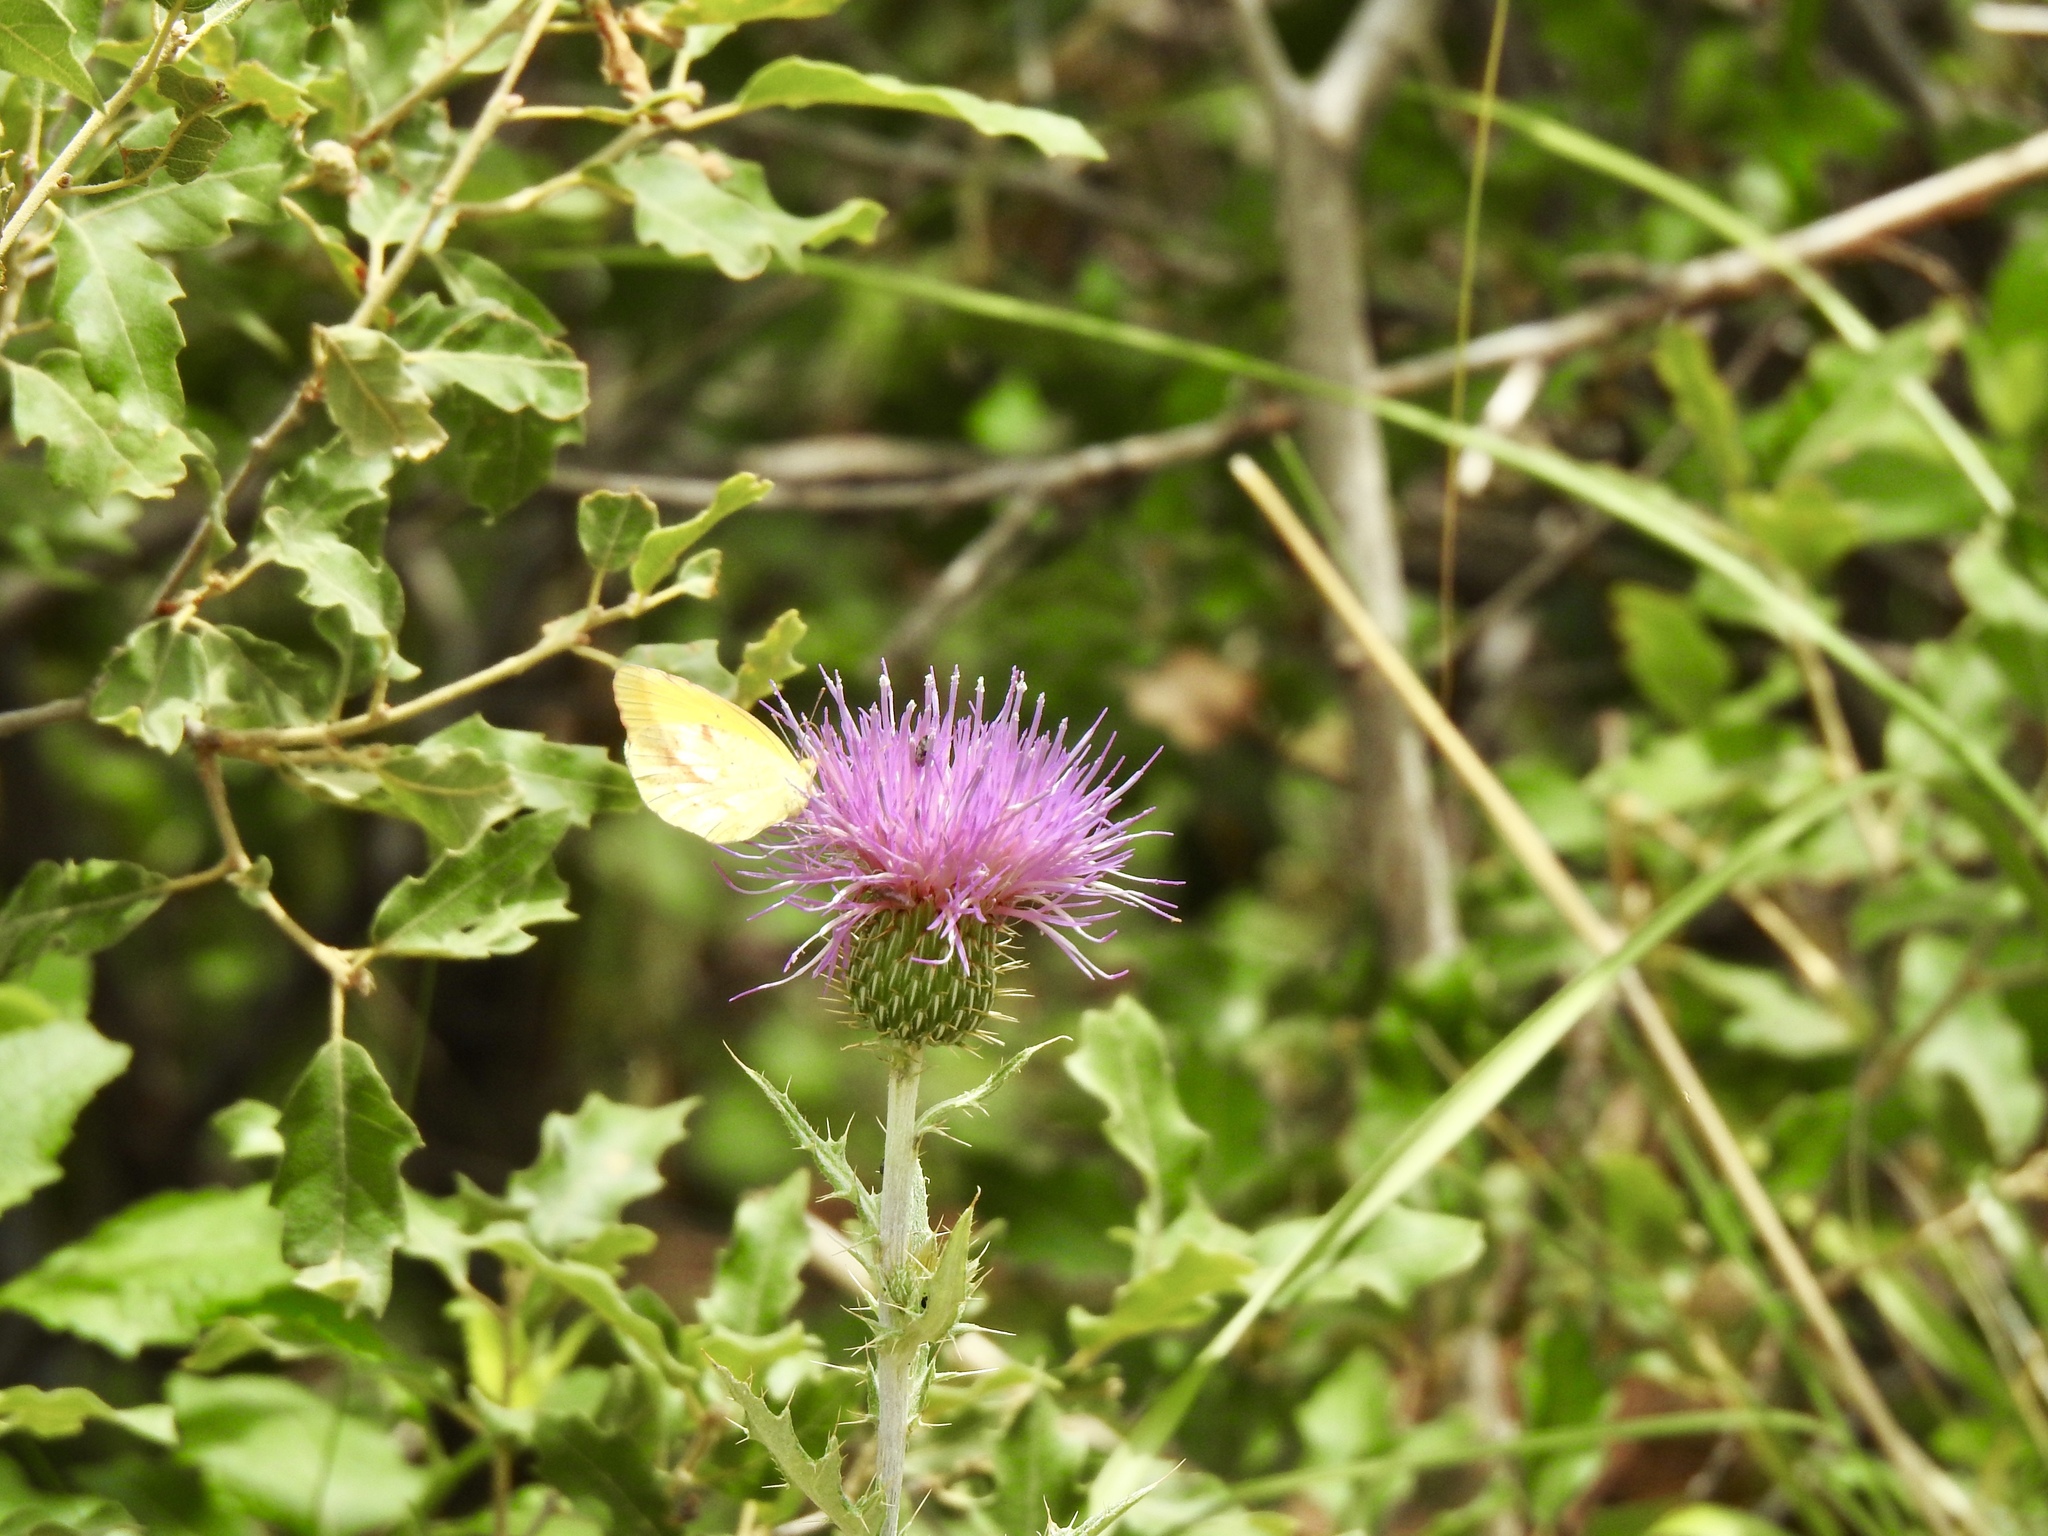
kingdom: Animalia
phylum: Arthropoda
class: Insecta
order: Lepidoptera
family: Pieridae
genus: Abaeis
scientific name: Abaeis nicippe
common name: Sleepy orange
